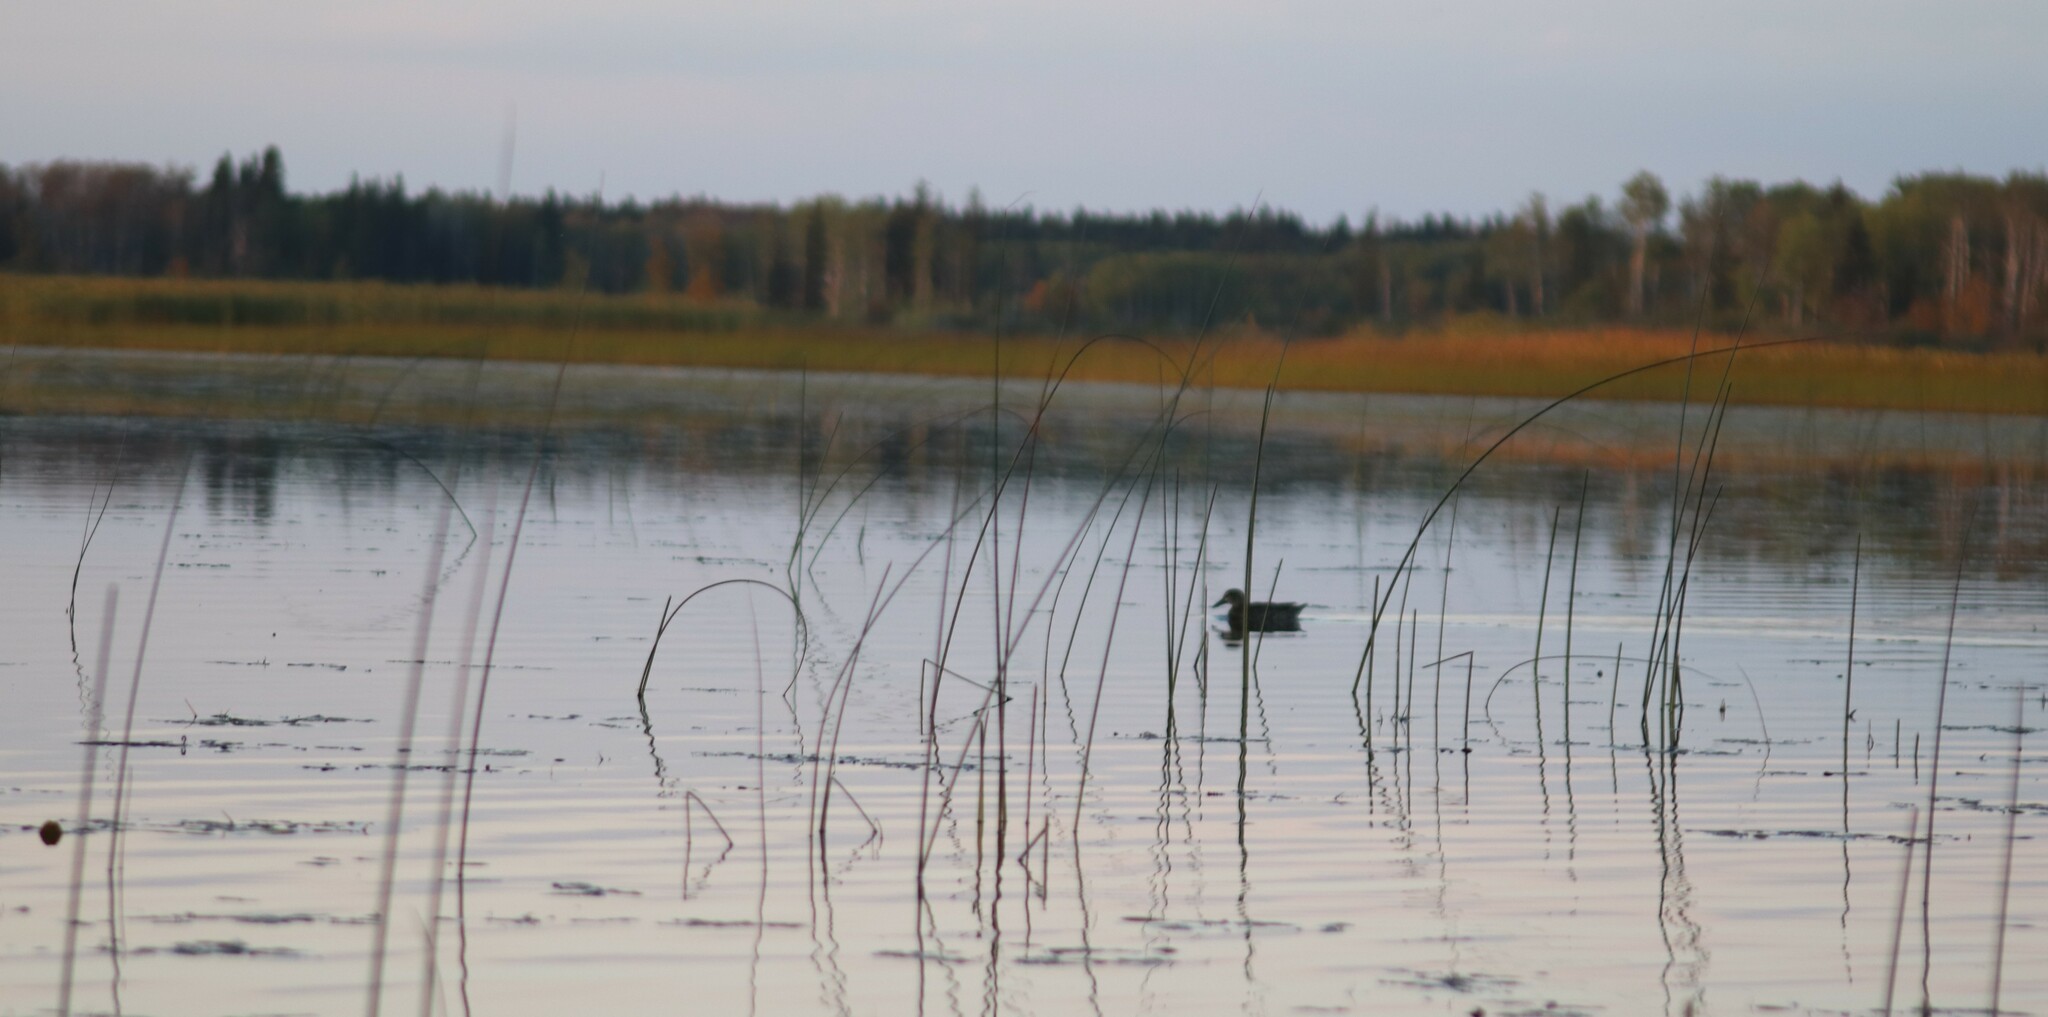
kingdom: Animalia
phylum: Chordata
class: Aves
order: Anseriformes
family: Anatidae
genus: Spatula
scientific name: Spatula discors
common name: Blue-winged teal
